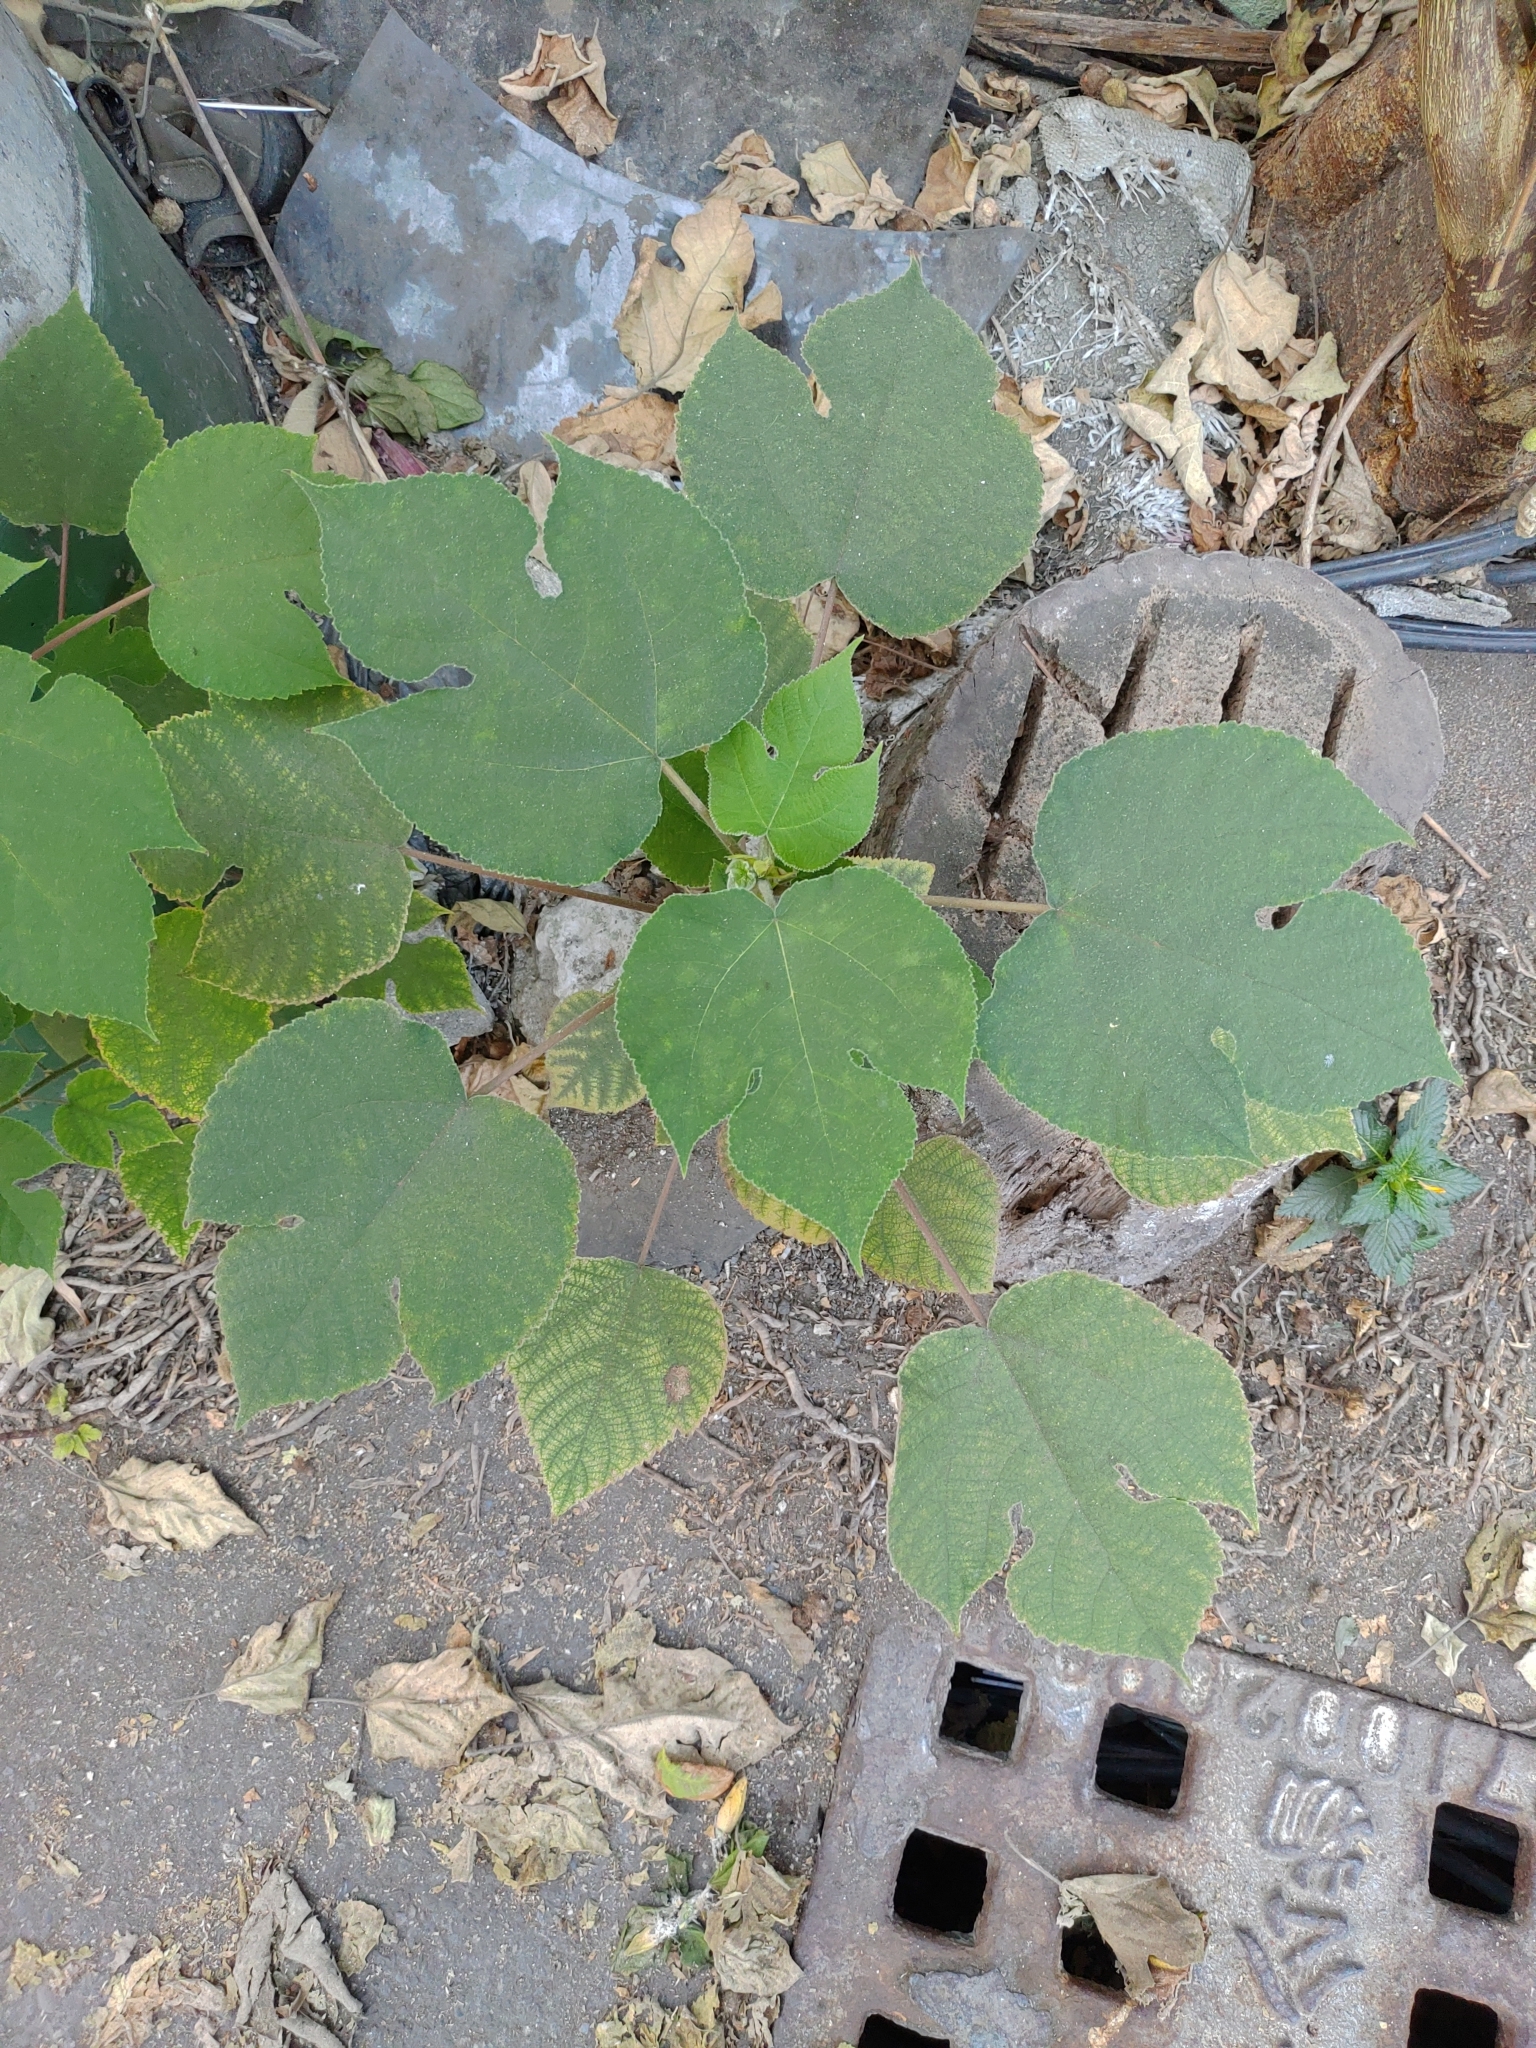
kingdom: Plantae
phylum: Tracheophyta
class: Magnoliopsida
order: Rosales
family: Moraceae
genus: Broussonetia
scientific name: Broussonetia papyrifera
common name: Paper mulberry
